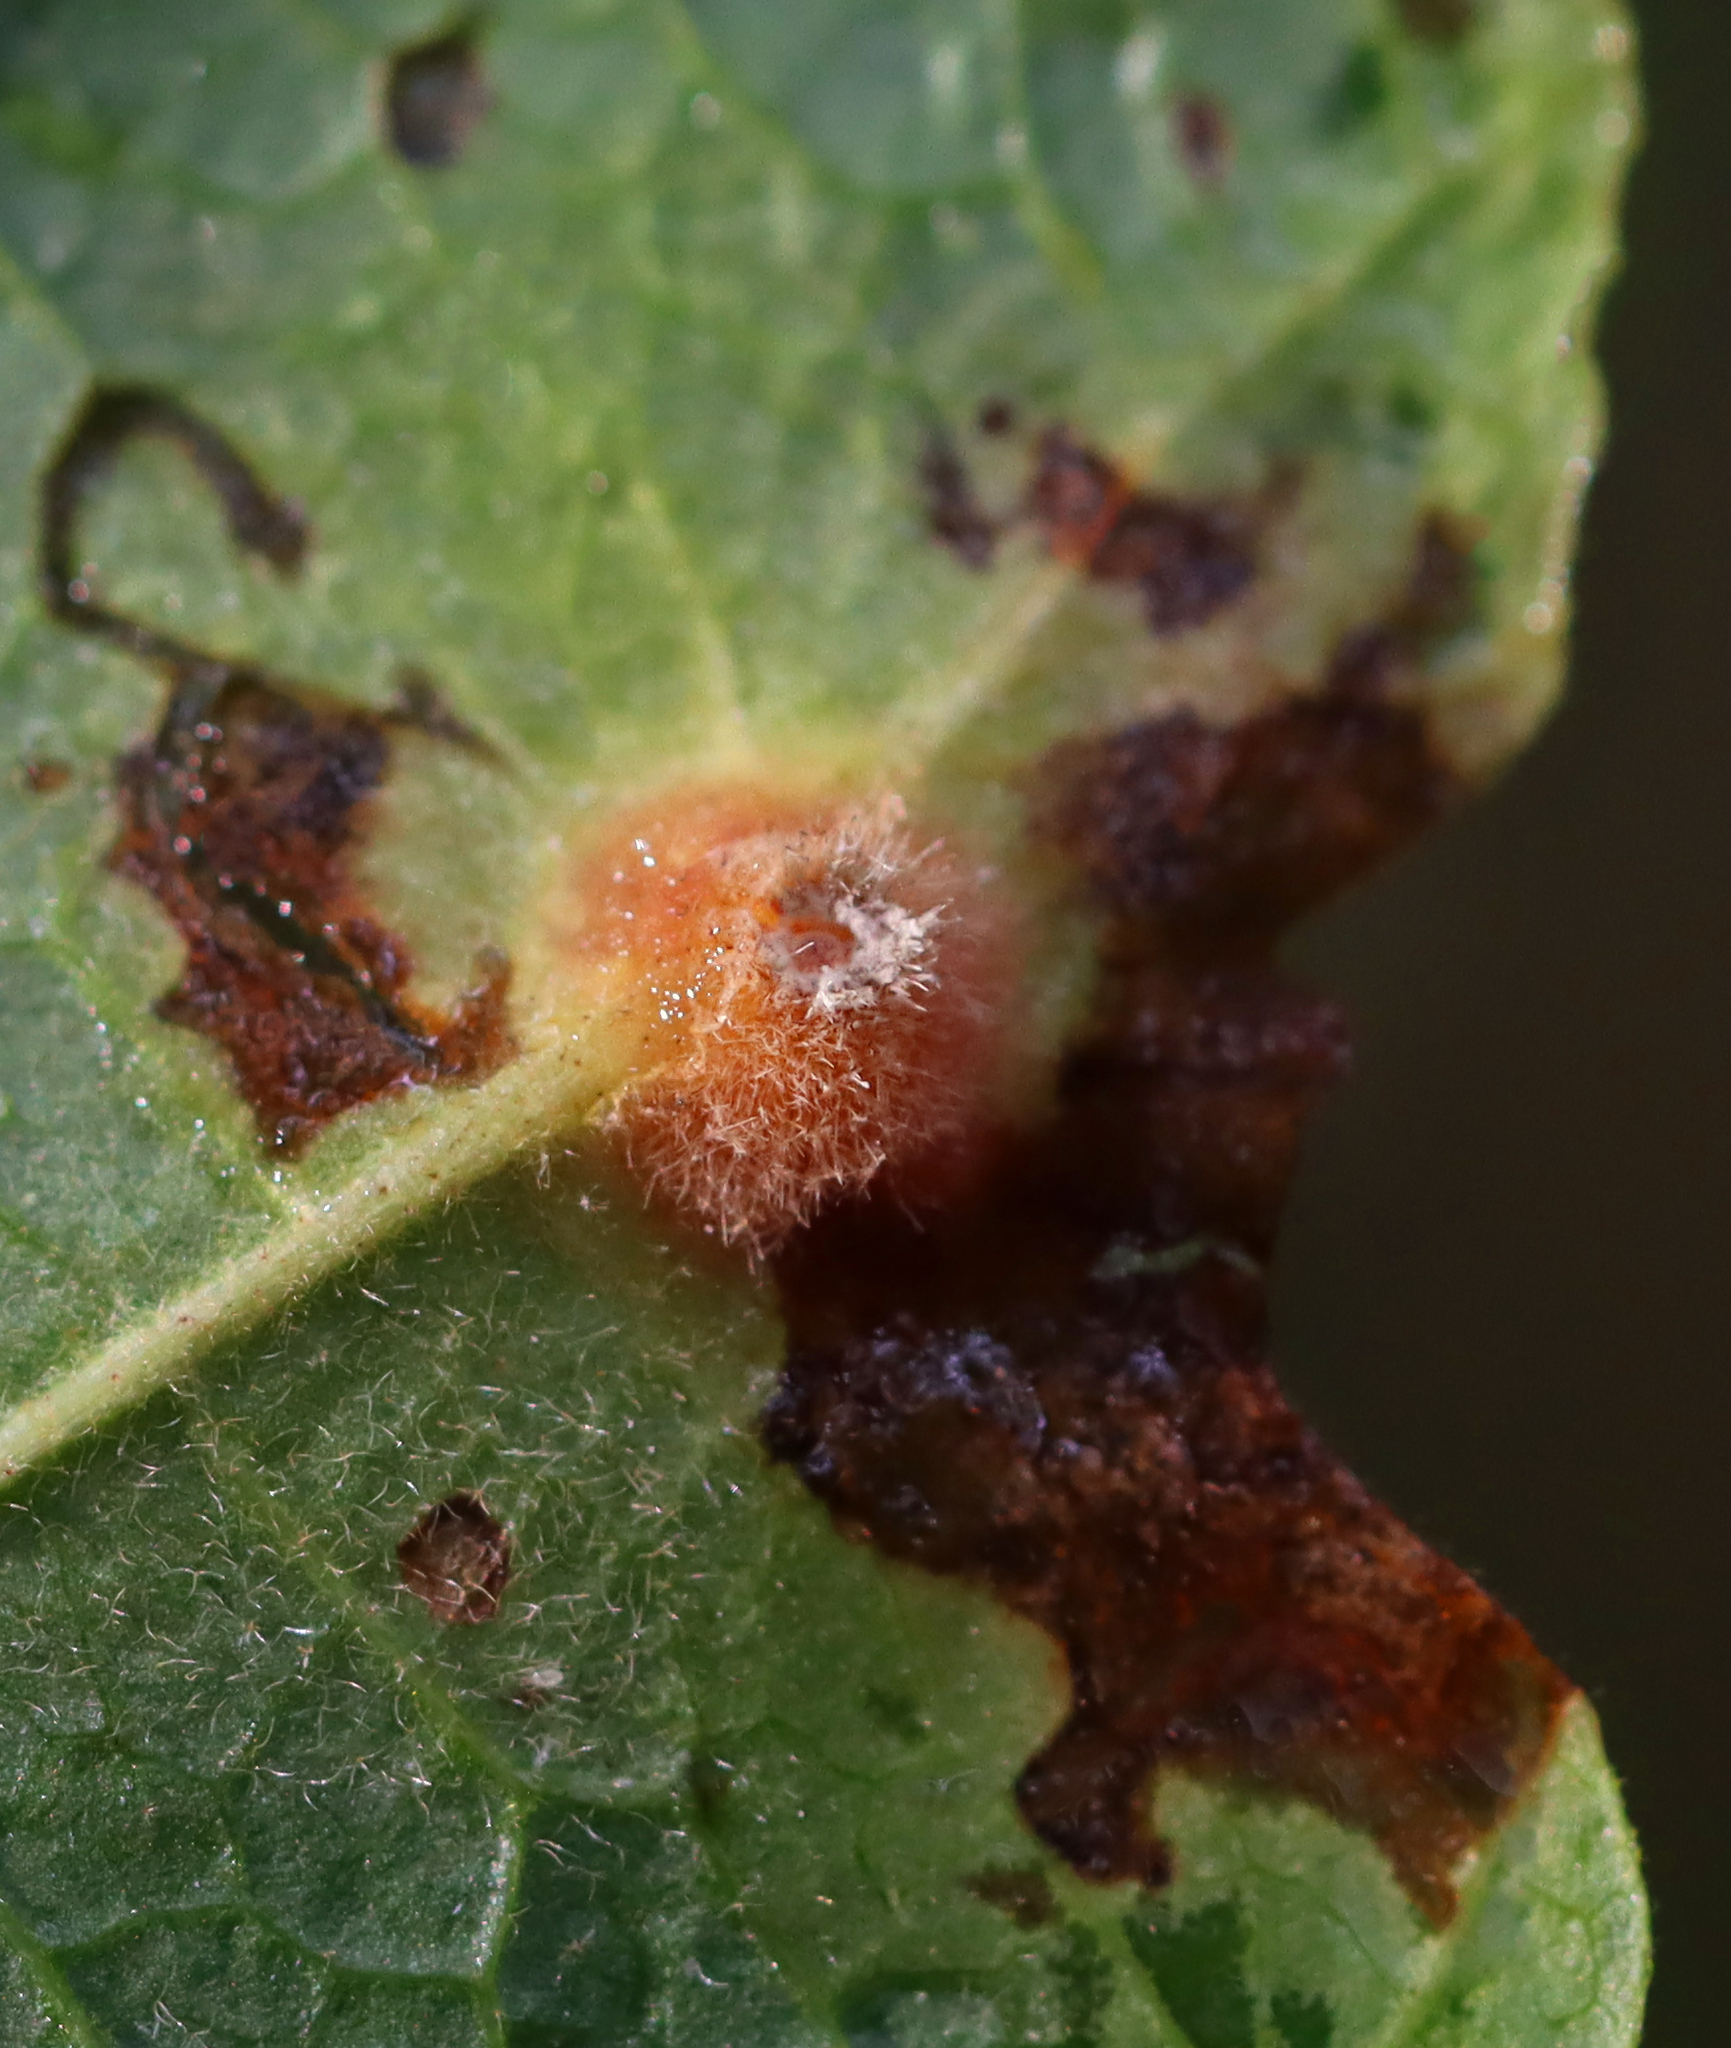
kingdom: Animalia
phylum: Arthropoda
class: Insecta
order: Hemiptera
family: Aphididae
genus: Hormaphis
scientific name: Hormaphis hamamelidis
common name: Witch-hazel cone gall aphid
